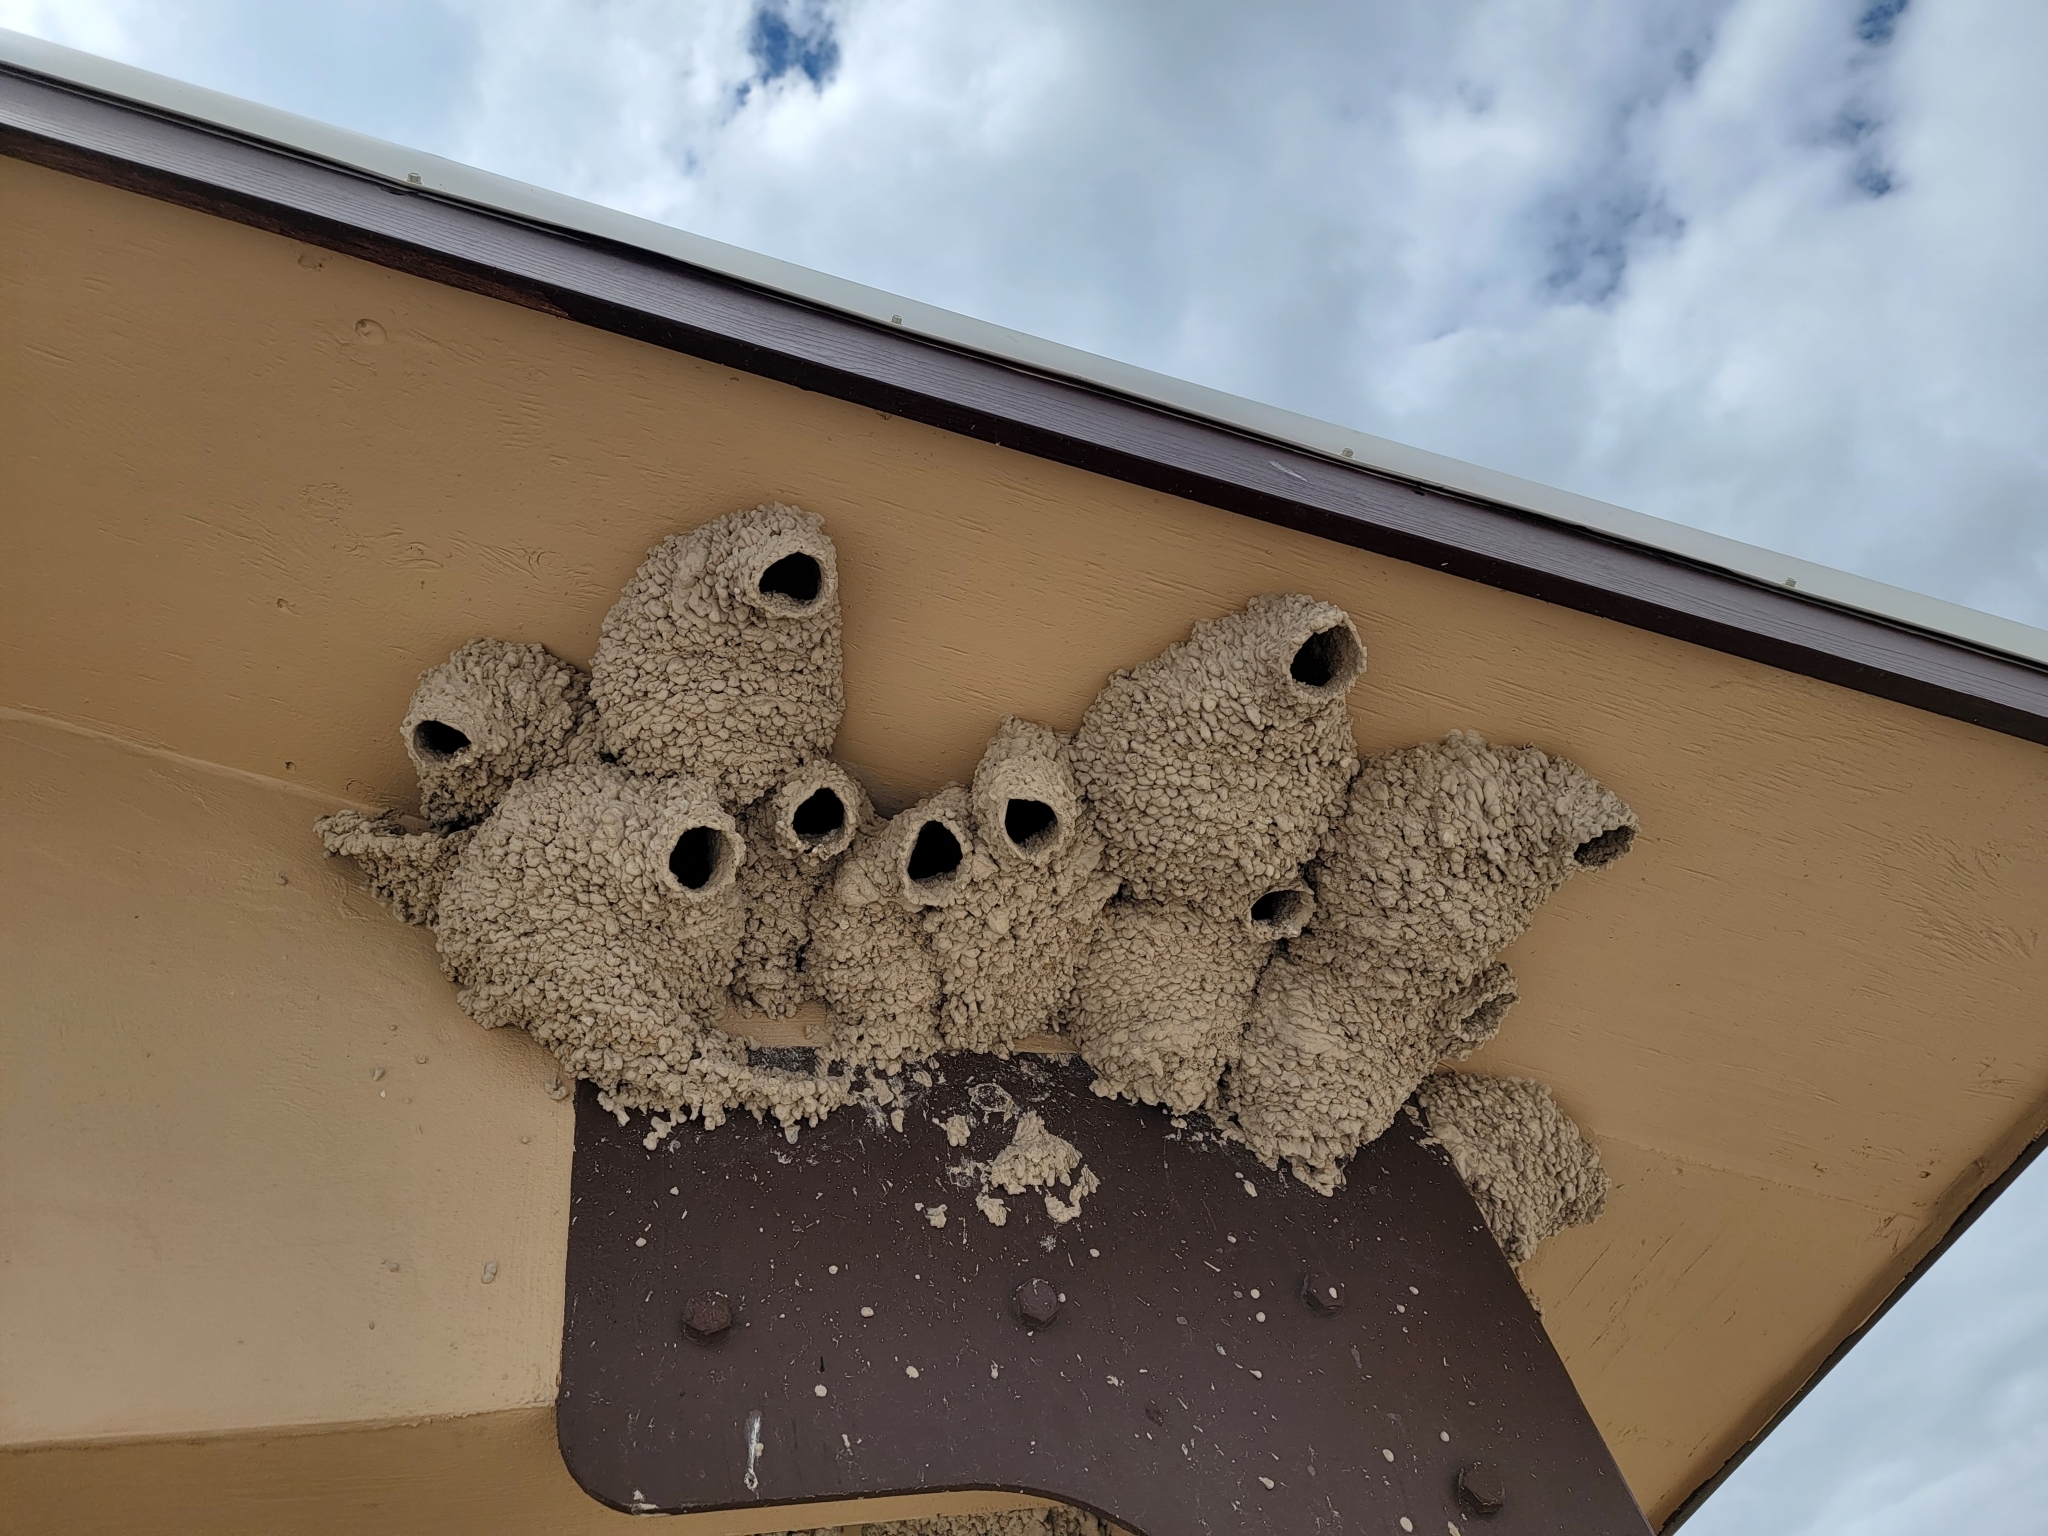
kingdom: Animalia
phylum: Chordata
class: Aves
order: Passeriformes
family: Hirundinidae
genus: Petrochelidon
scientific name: Petrochelidon pyrrhonota
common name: American cliff swallow
